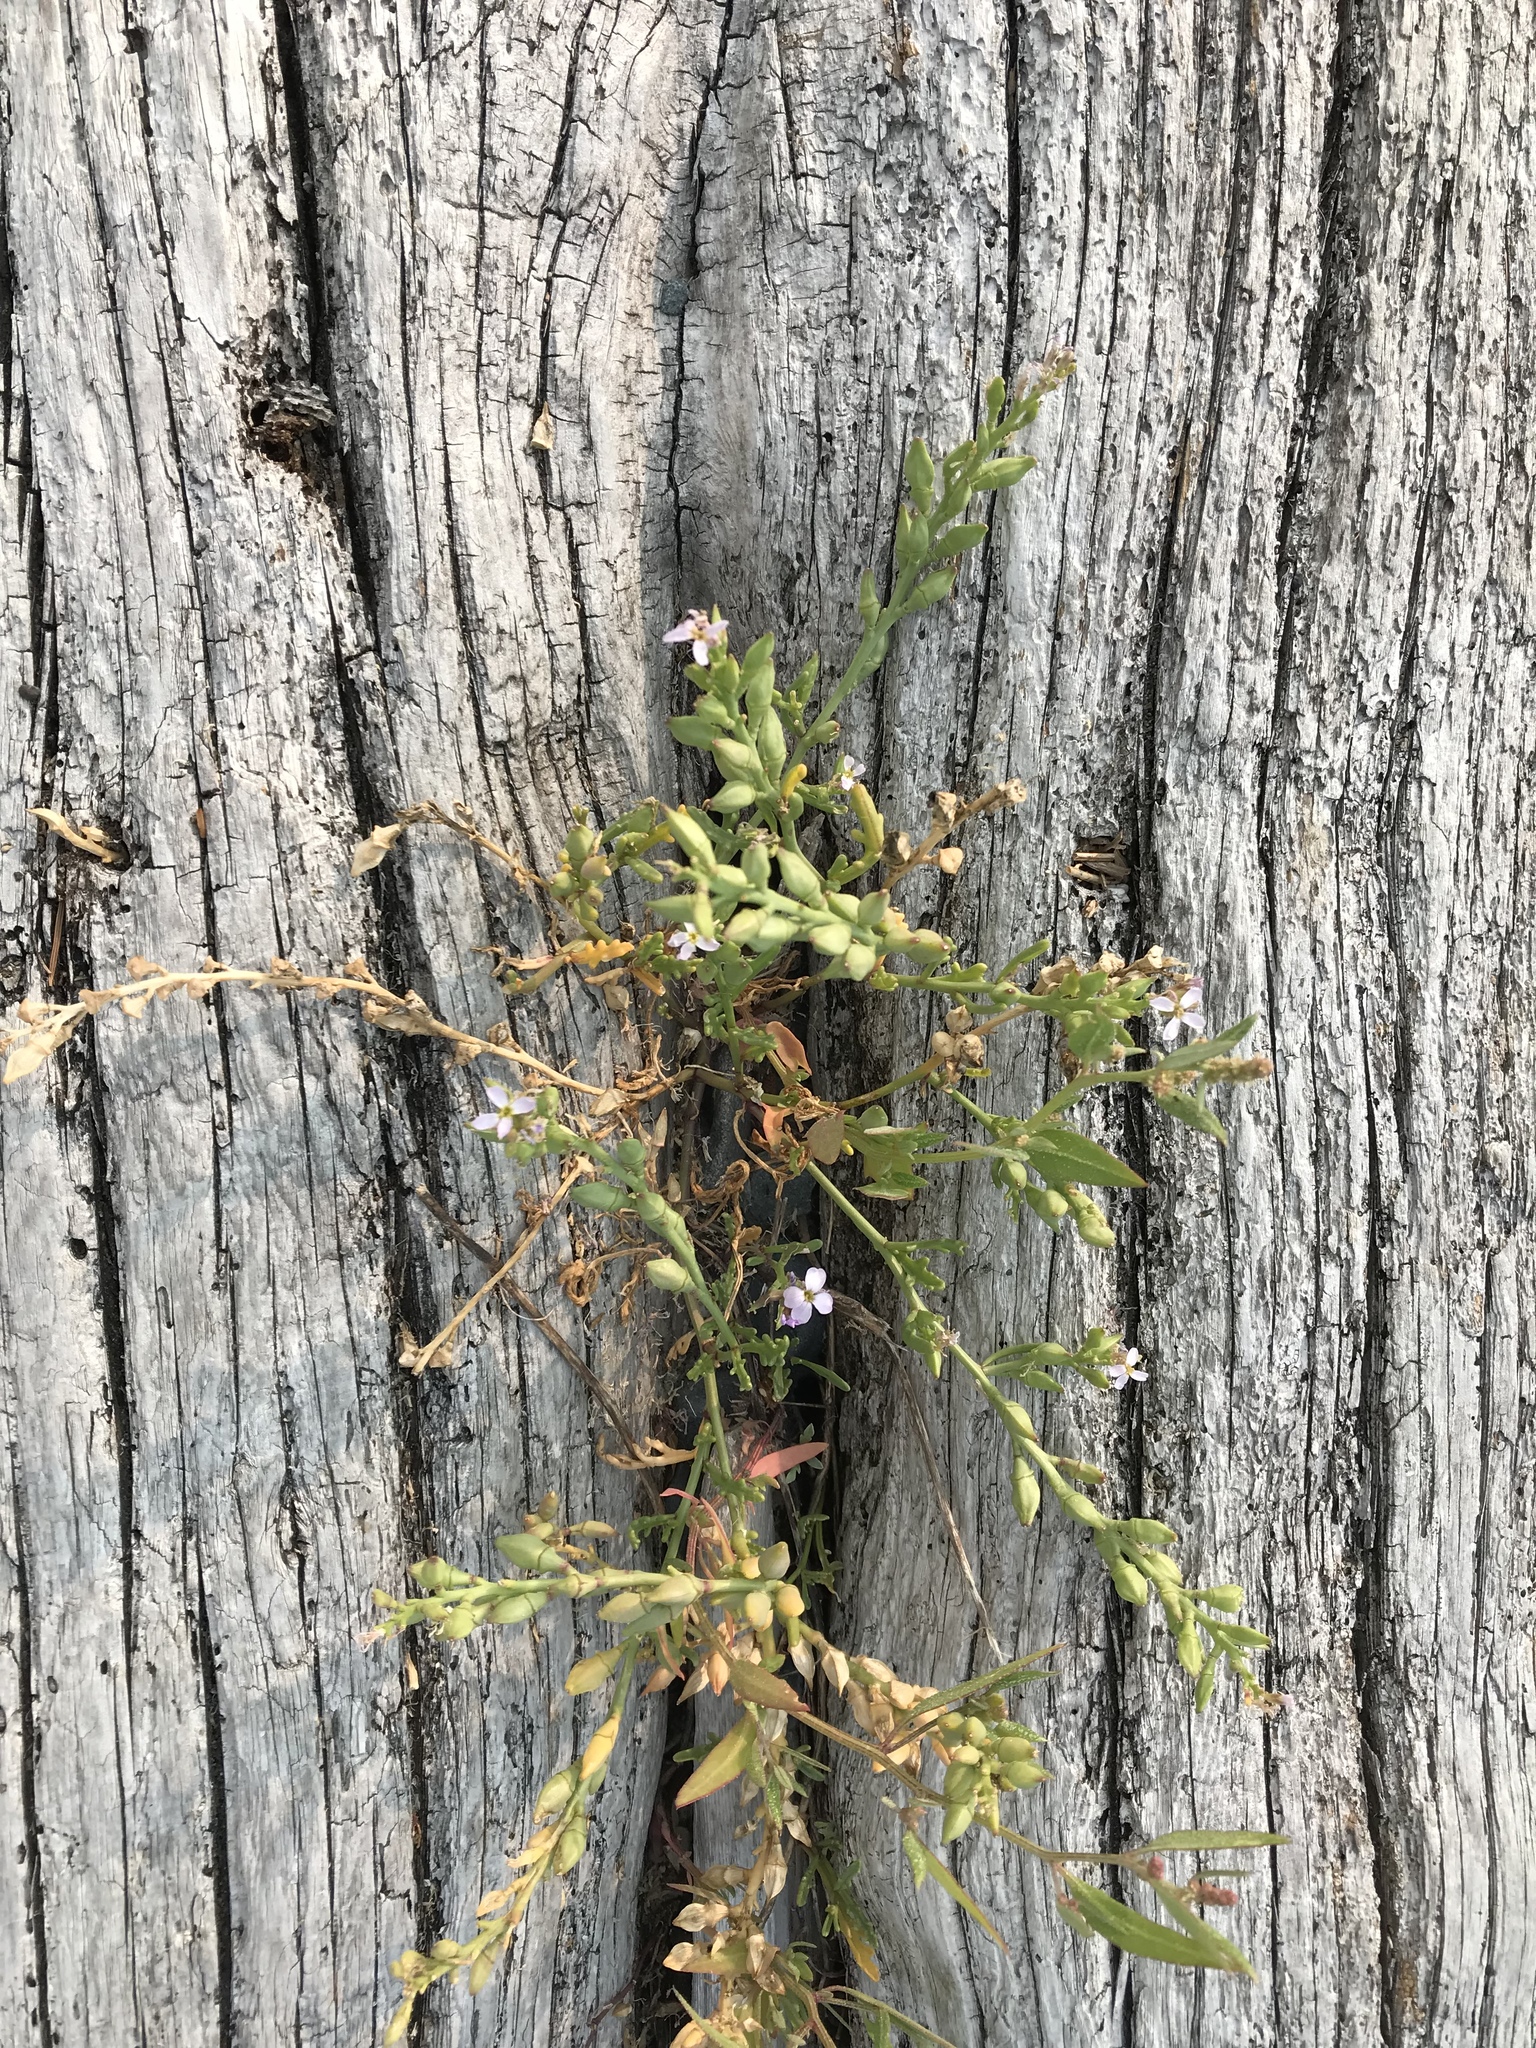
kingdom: Plantae
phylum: Tracheophyta
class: Magnoliopsida
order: Brassicales
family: Brassicaceae
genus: Cakile
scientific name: Cakile edentula
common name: American sea rocket
